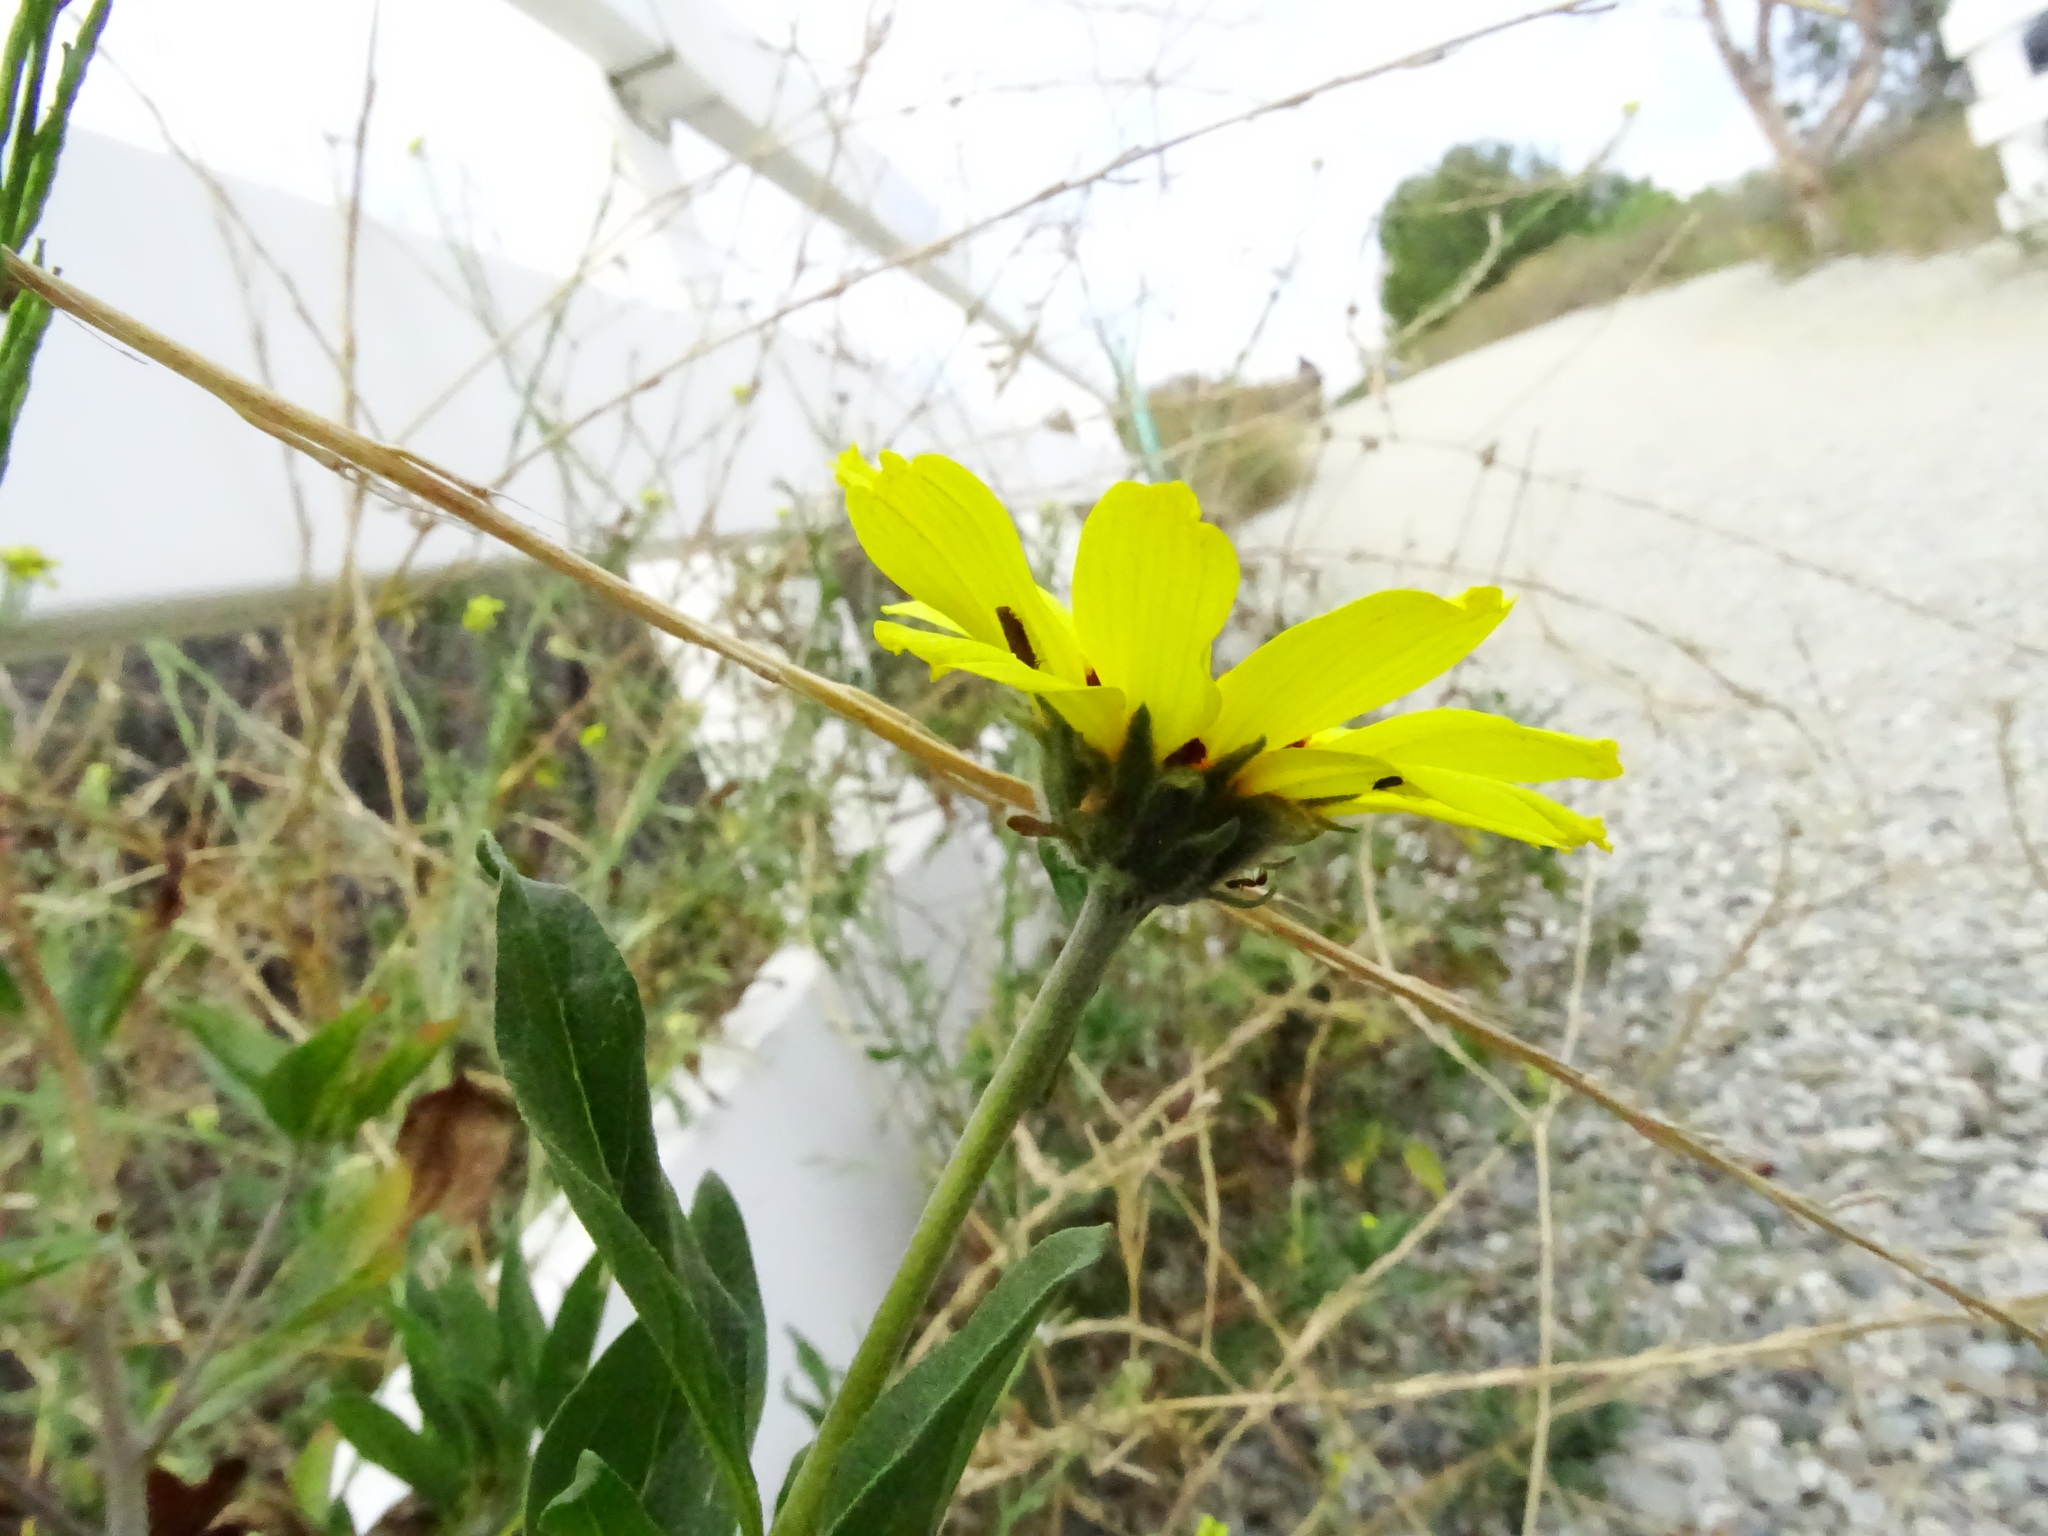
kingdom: Plantae
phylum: Tracheophyta
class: Magnoliopsida
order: Asterales
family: Asteraceae
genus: Encelia
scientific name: Encelia californica
